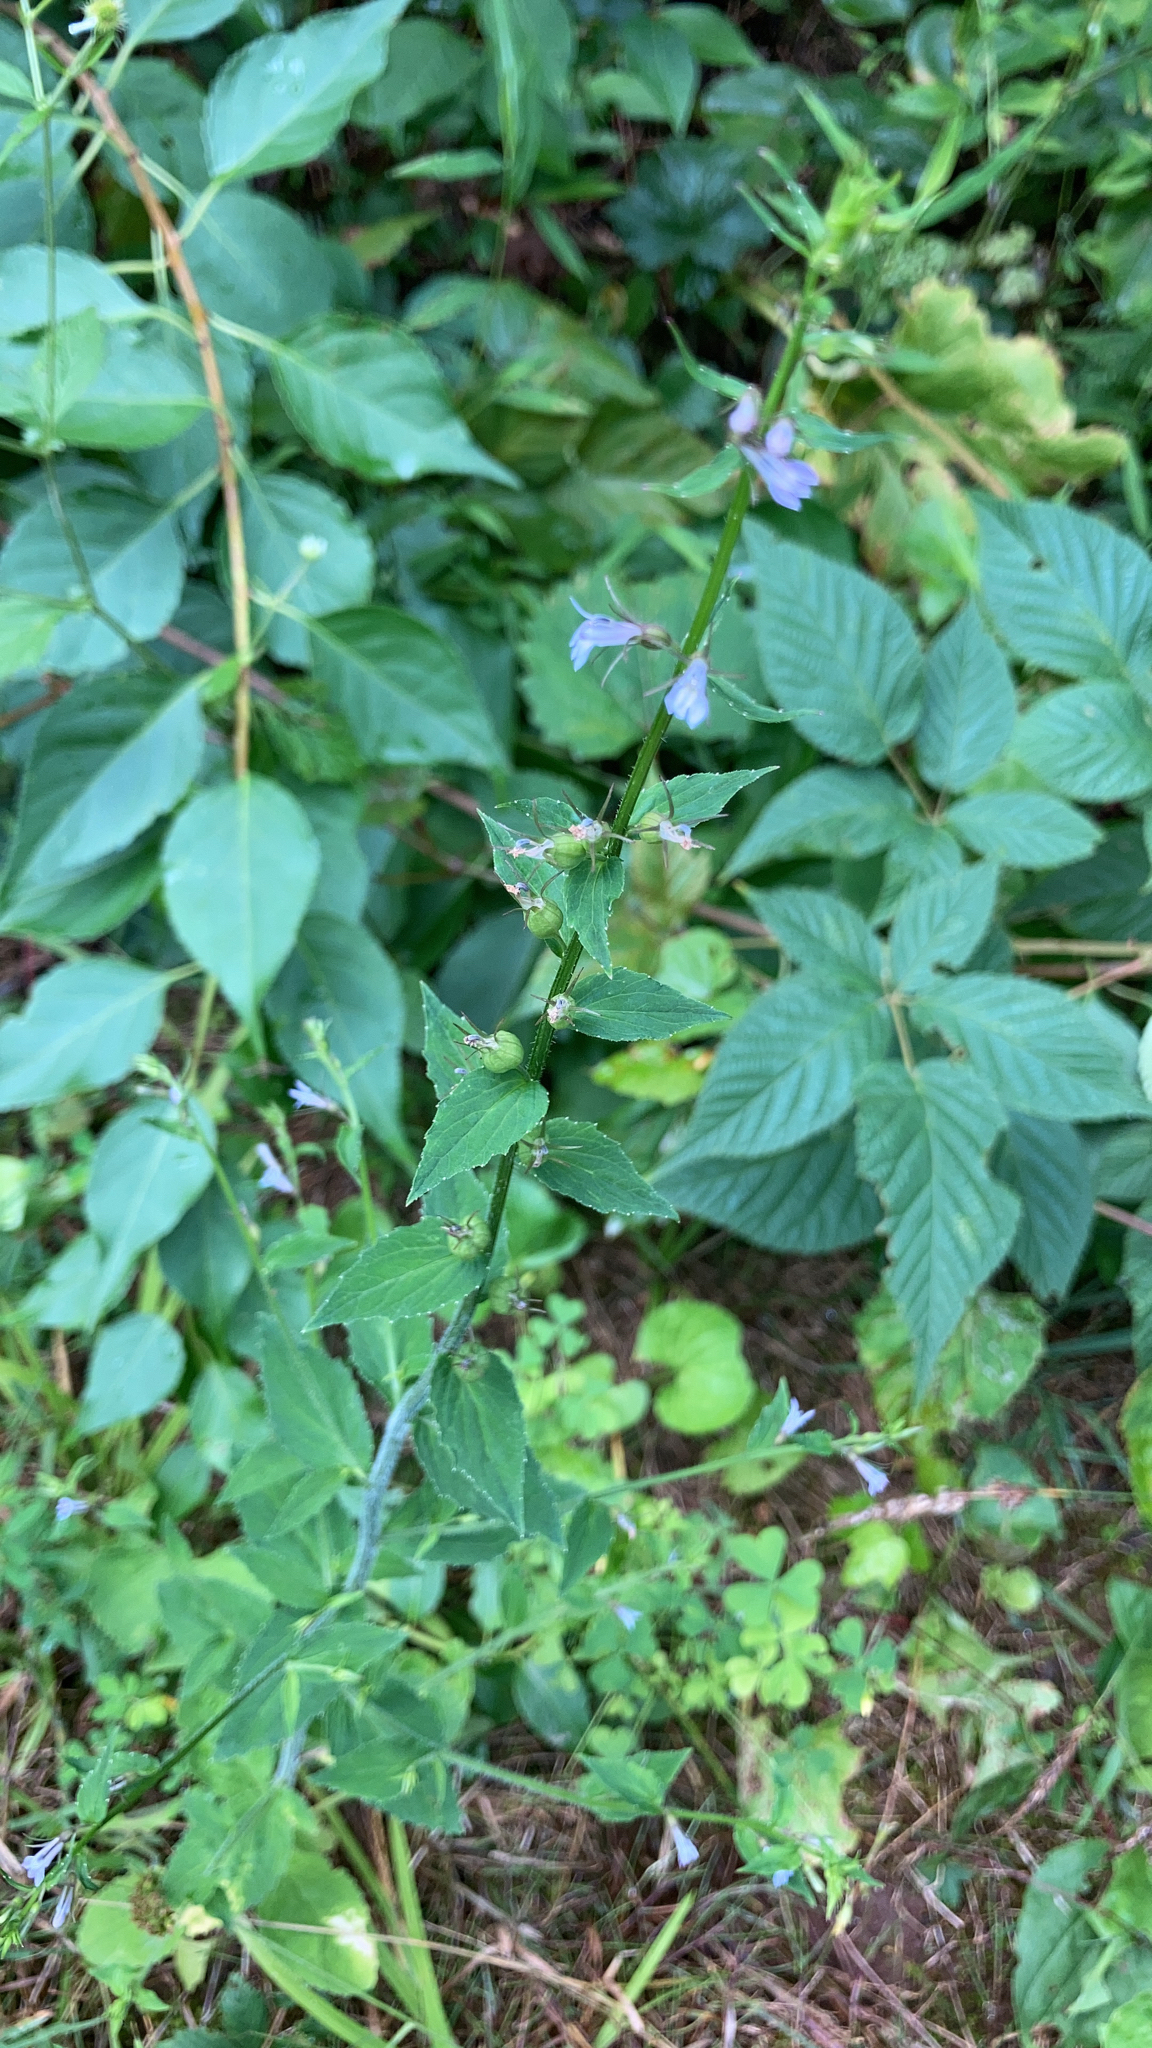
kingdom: Plantae
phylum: Tracheophyta
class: Magnoliopsida
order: Asterales
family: Campanulaceae
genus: Lobelia
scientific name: Lobelia inflata
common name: Indian tobacco
